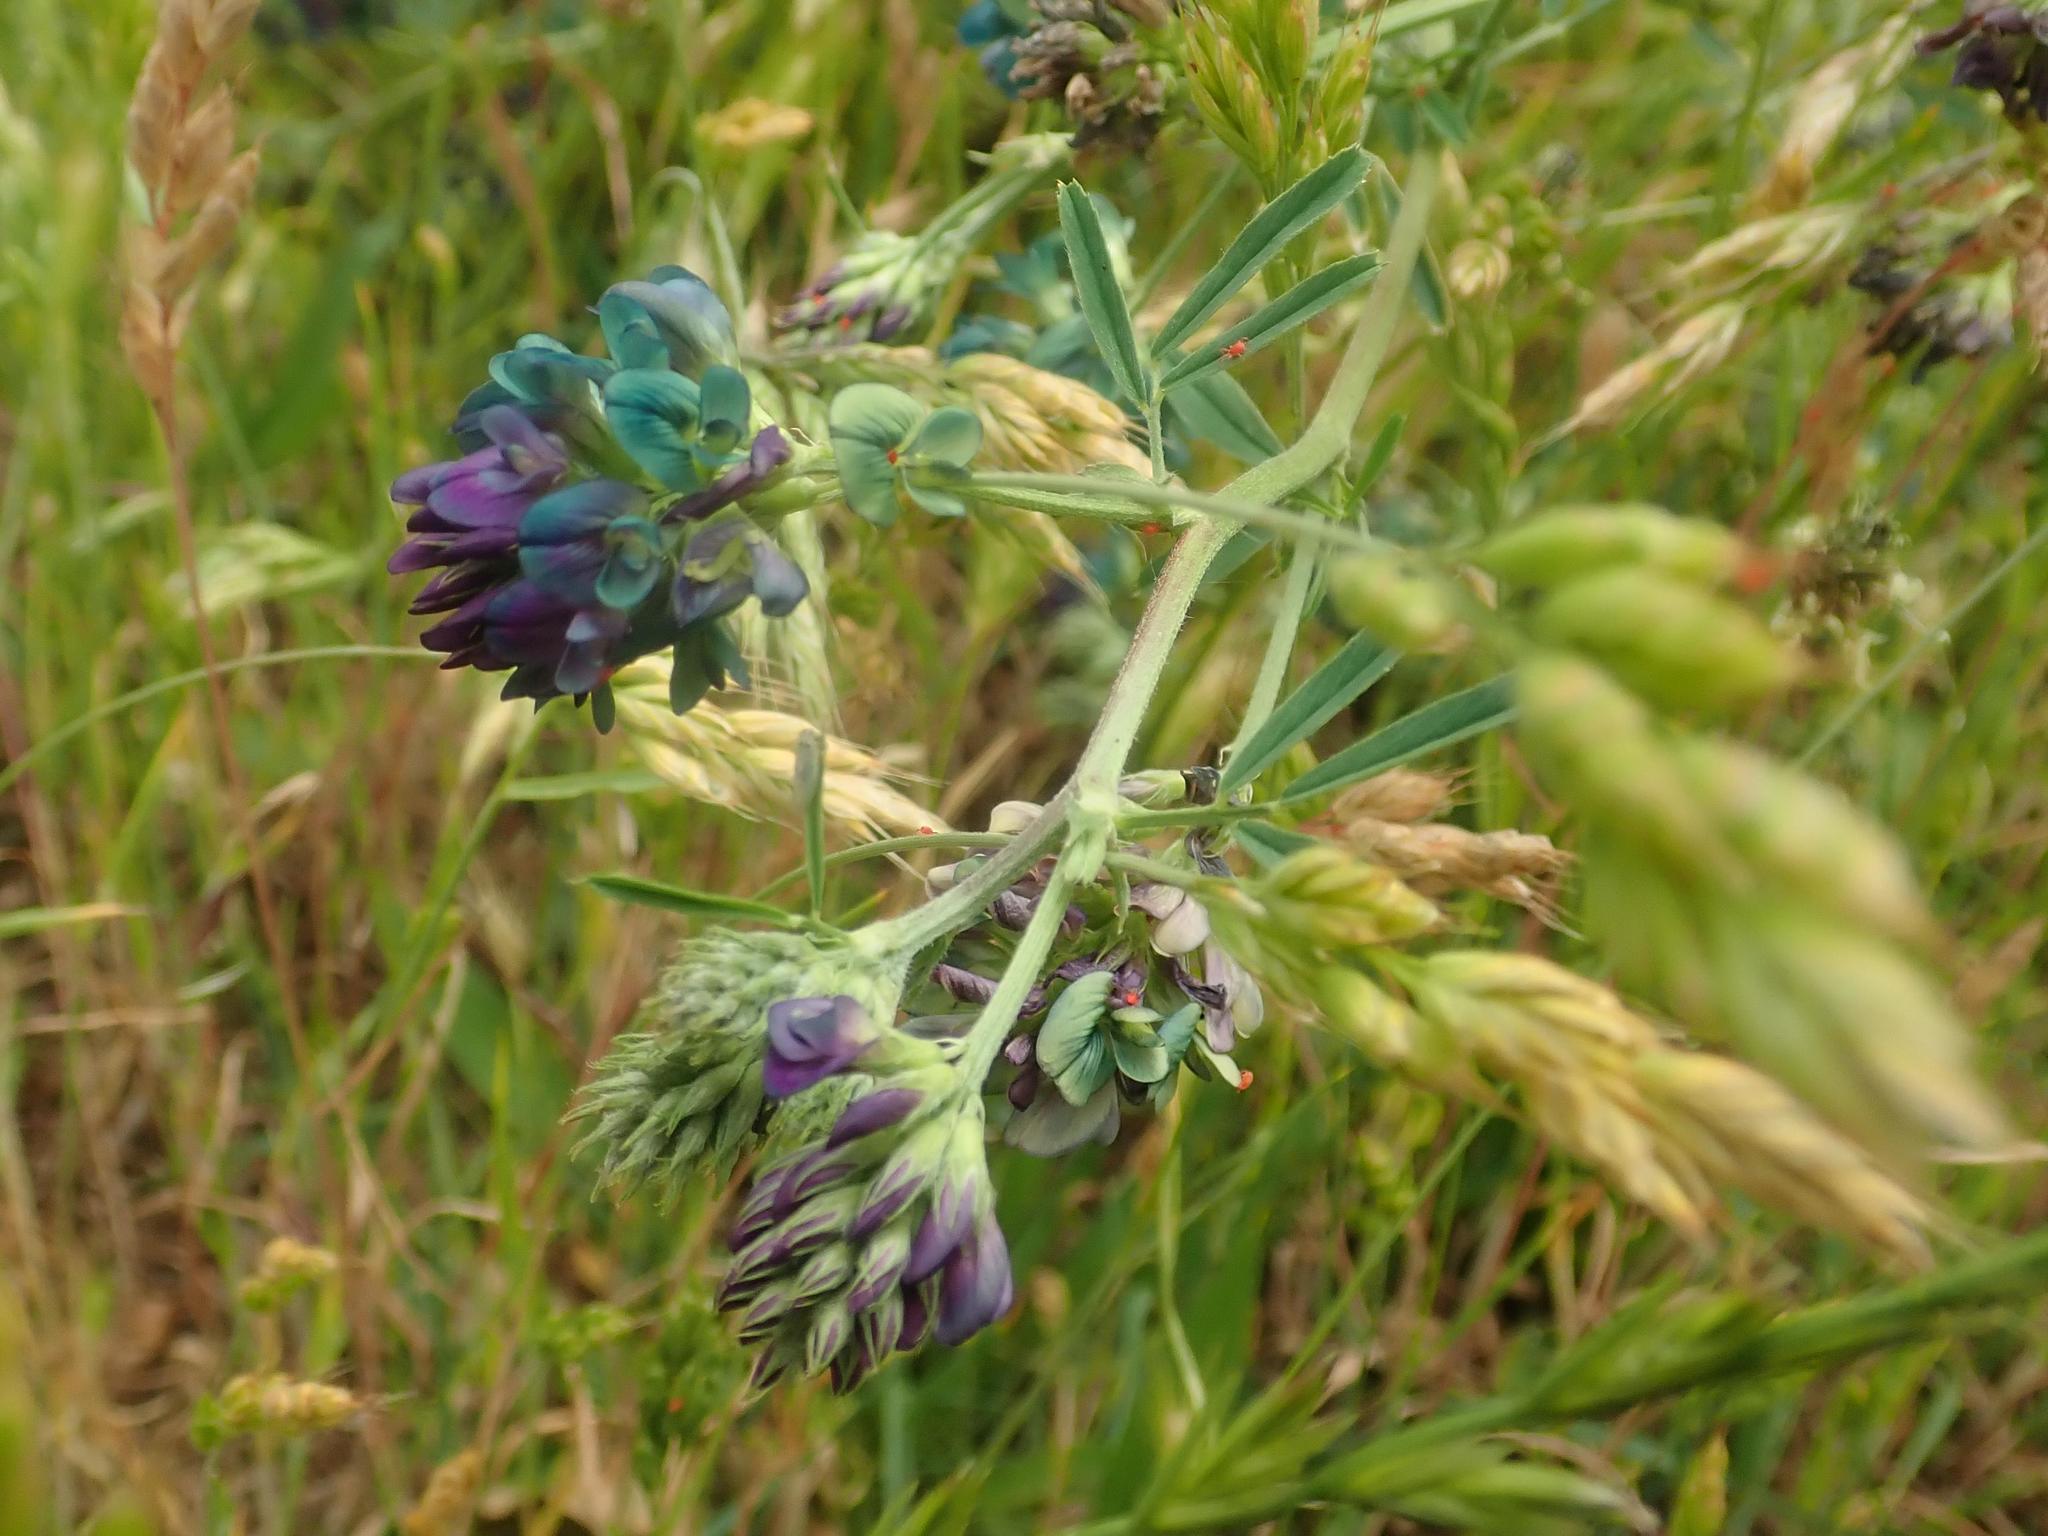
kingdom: Plantae
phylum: Tracheophyta
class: Magnoliopsida
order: Fabales
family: Fabaceae
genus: Medicago
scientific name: Medicago varia
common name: Sand lucerne
